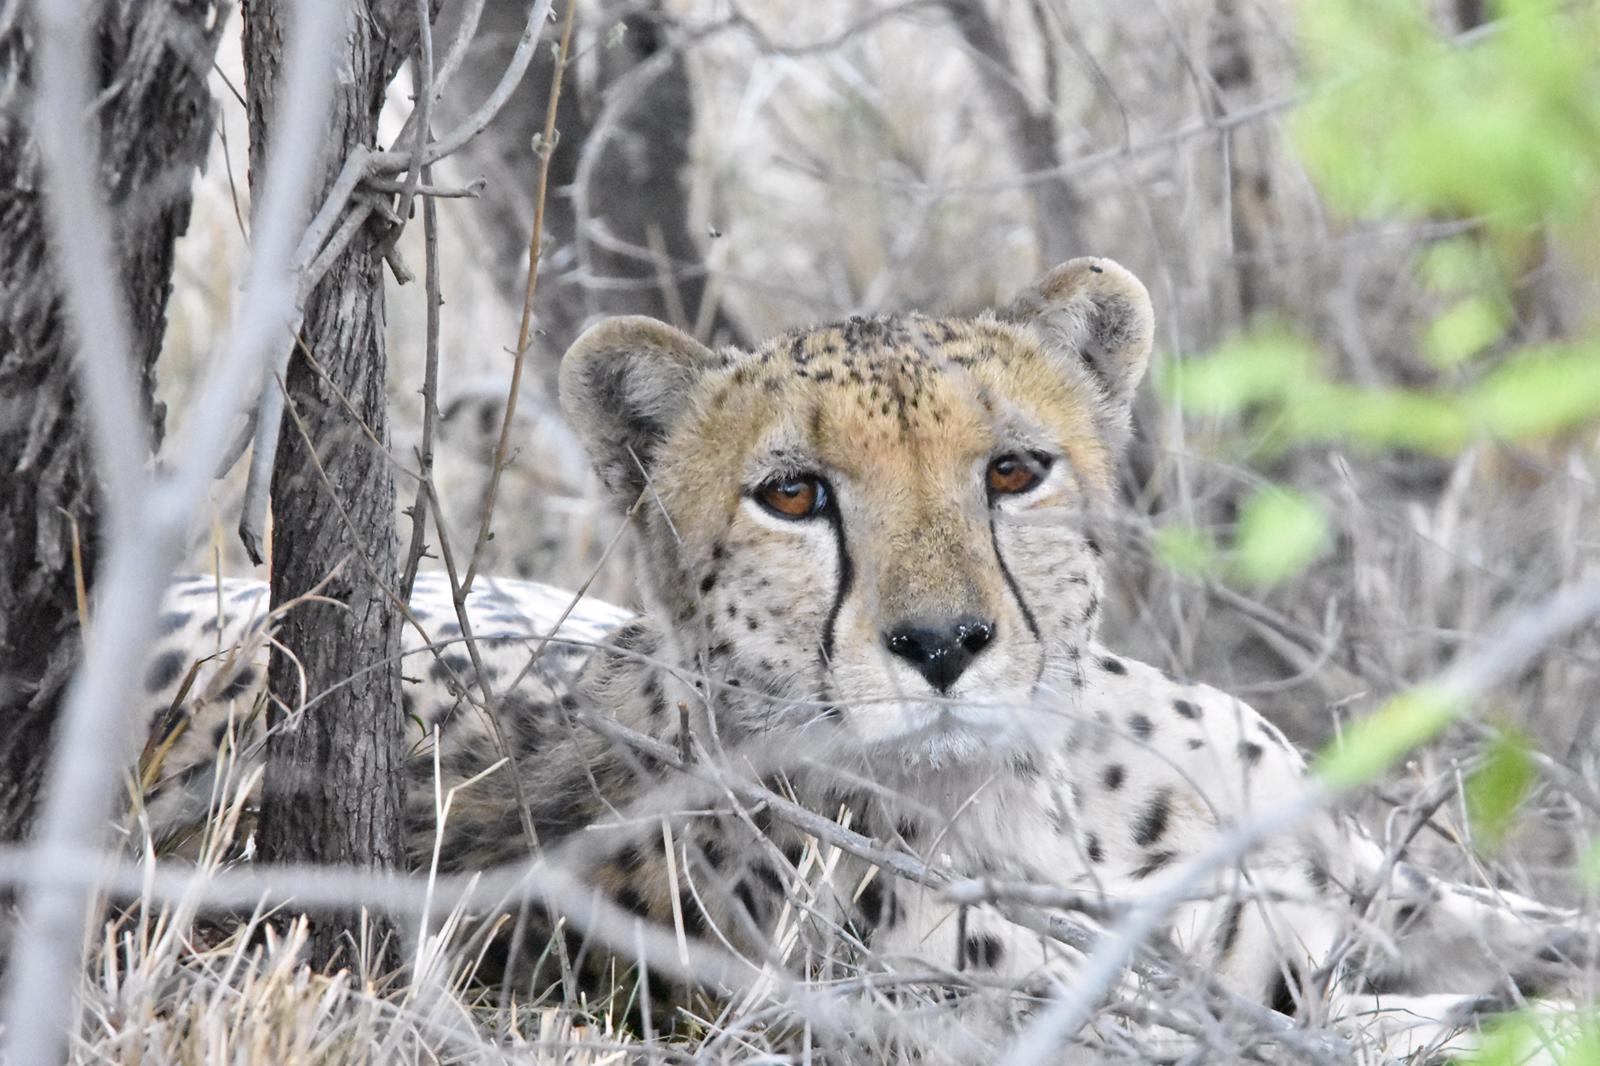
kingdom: Animalia
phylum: Chordata
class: Mammalia
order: Carnivora
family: Felidae
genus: Acinonyx
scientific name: Acinonyx jubatus
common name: Cheetah
